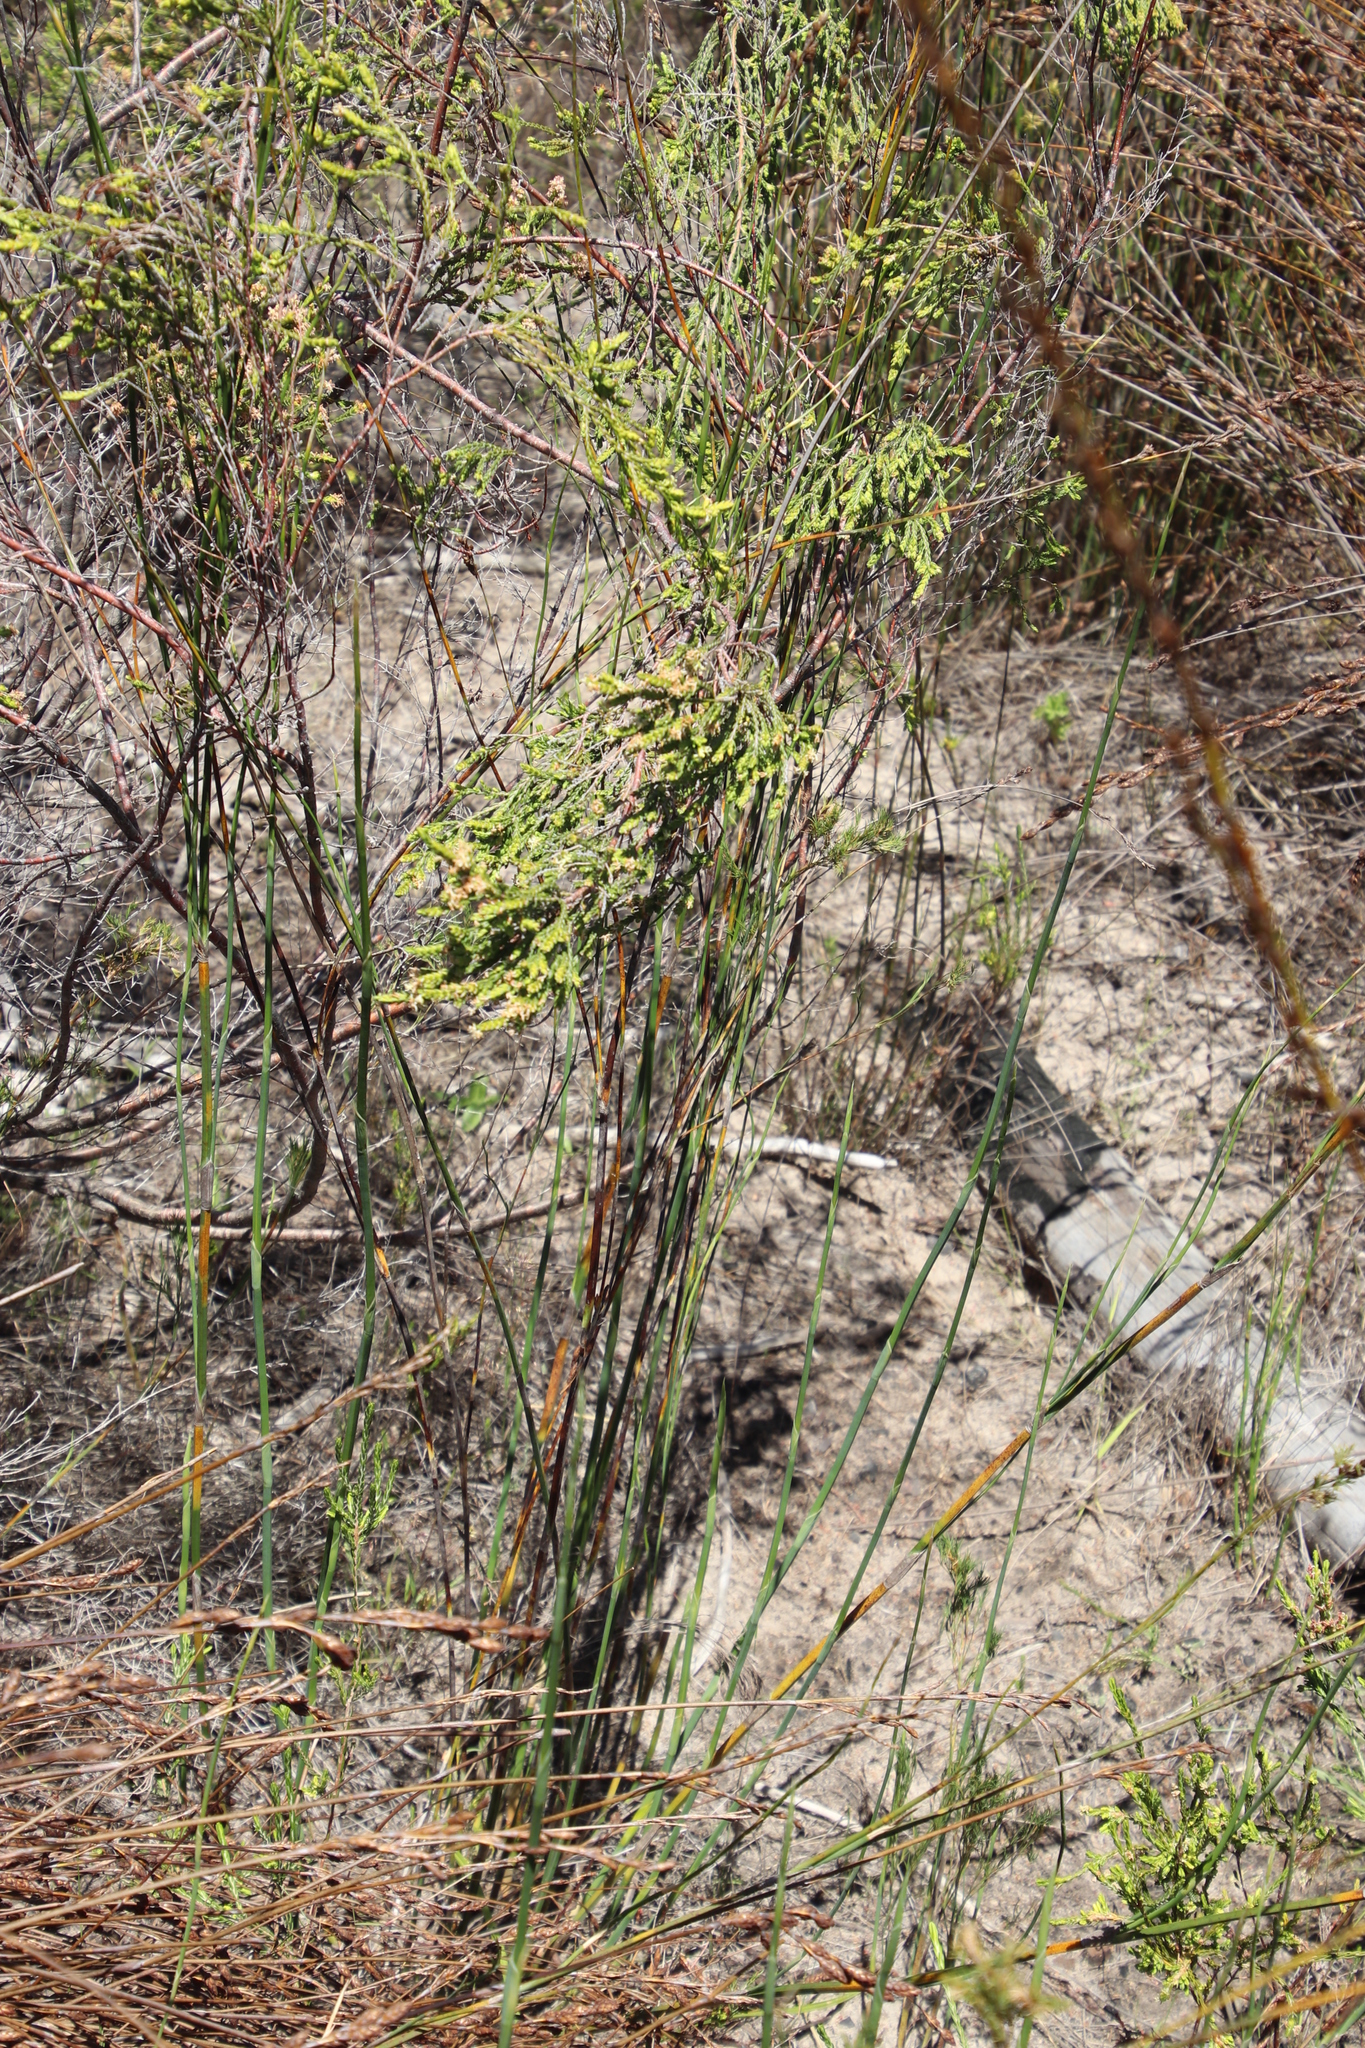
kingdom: Plantae
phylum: Tracheophyta
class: Liliopsida
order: Poales
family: Restionaceae
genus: Restio
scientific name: Restio tetragonus
